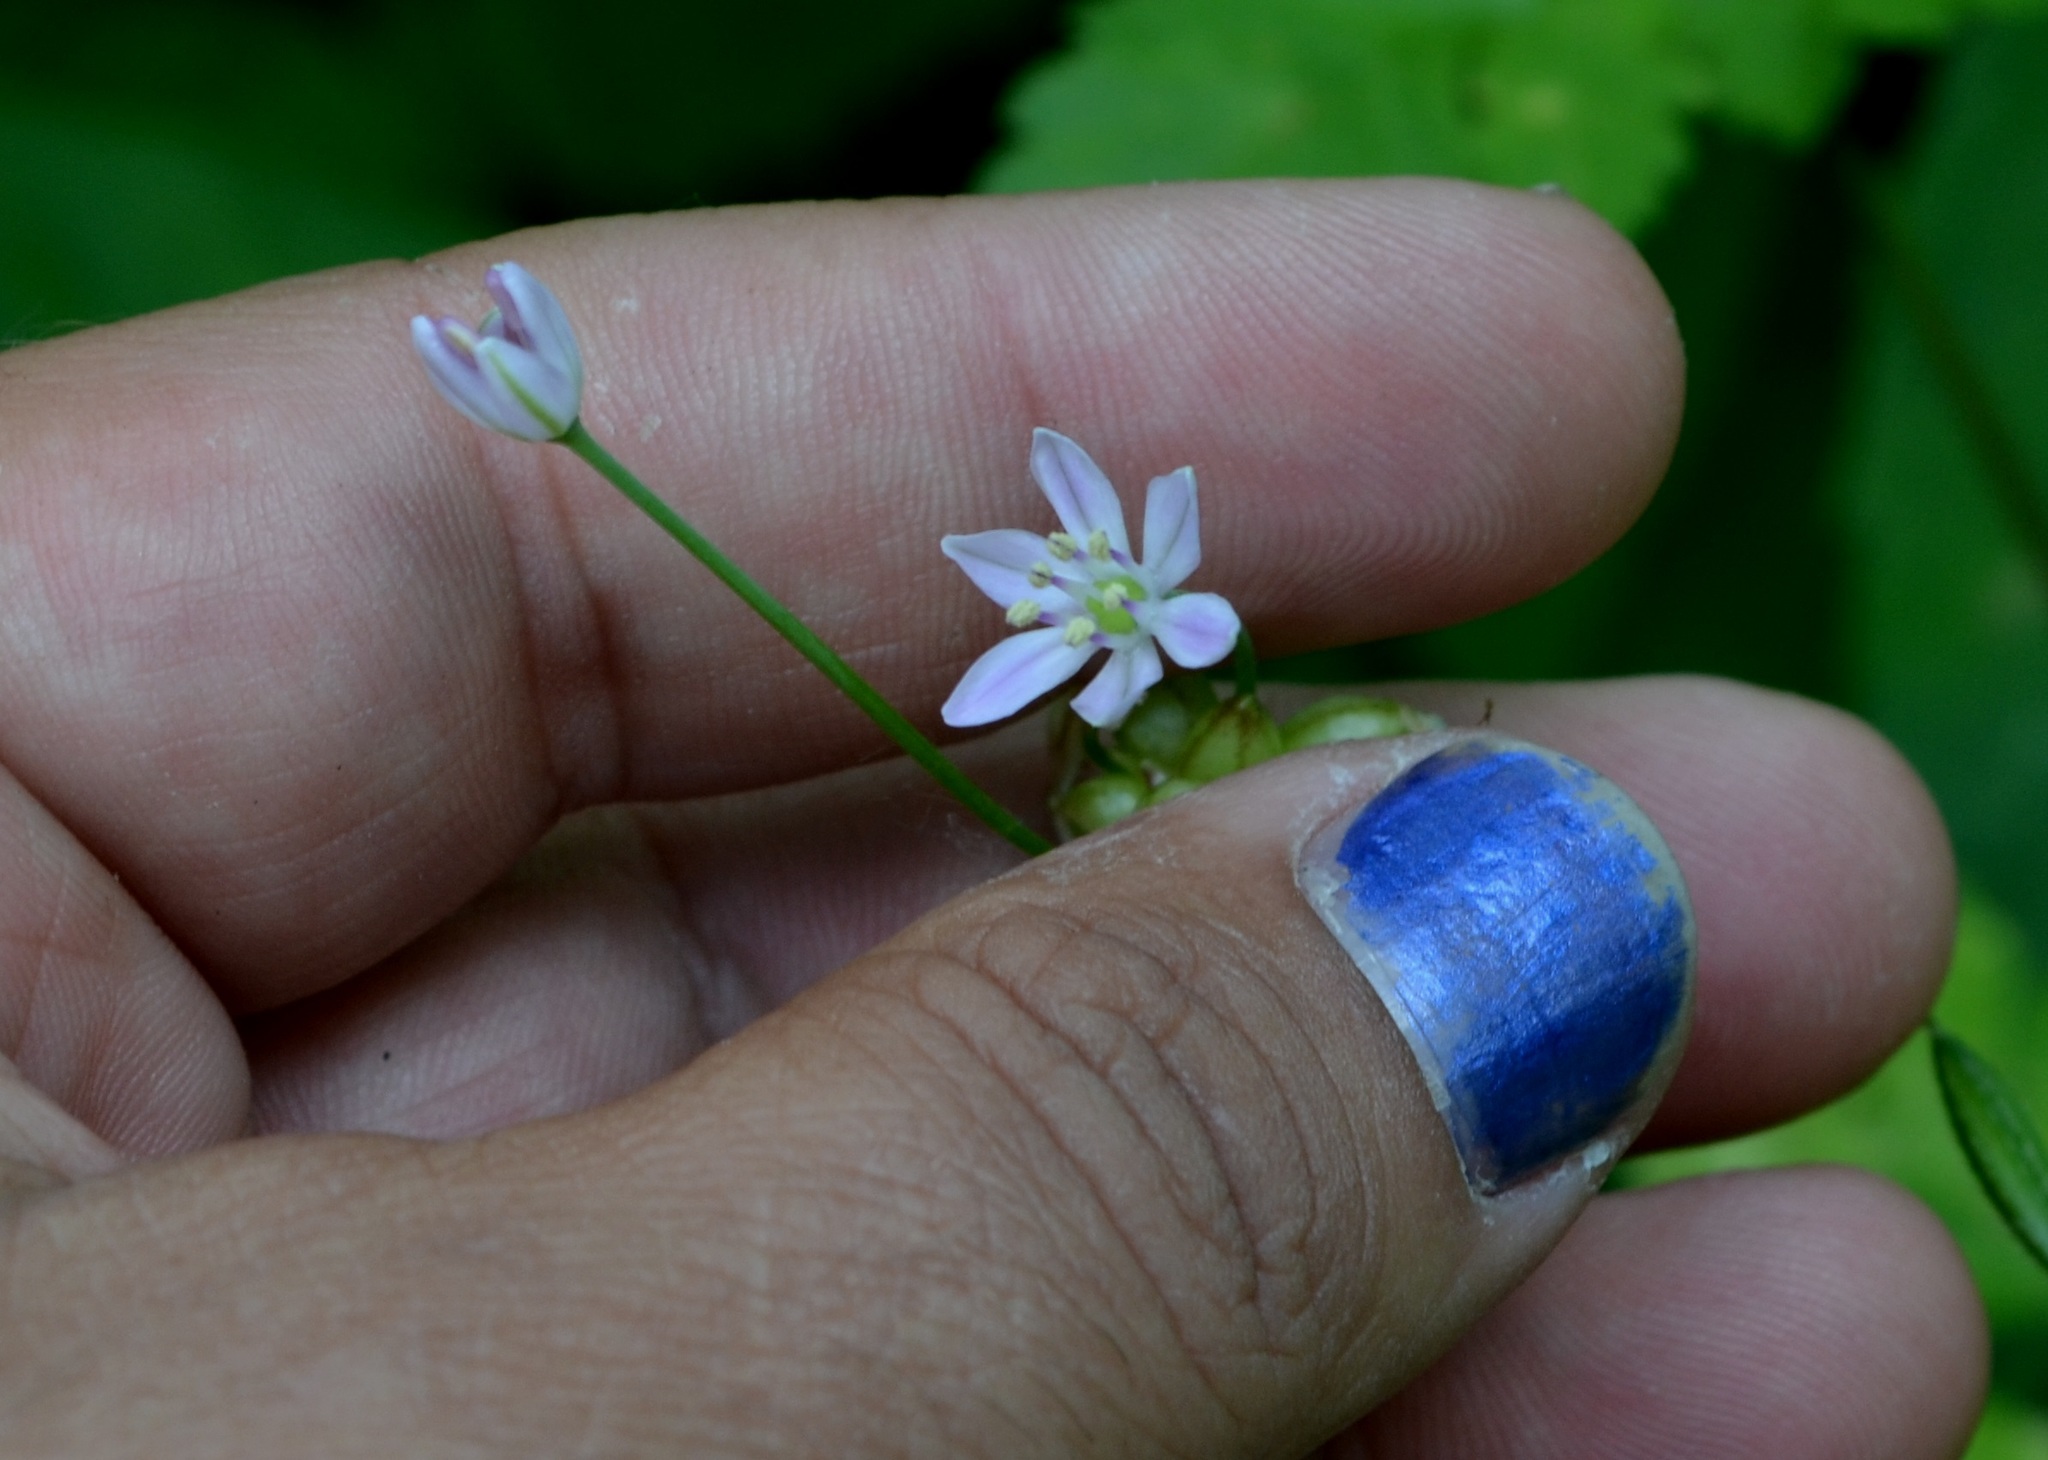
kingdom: Plantae
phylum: Tracheophyta
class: Liliopsida
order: Asparagales
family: Amaryllidaceae
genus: Allium
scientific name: Allium canadense
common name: Meadow garlic
